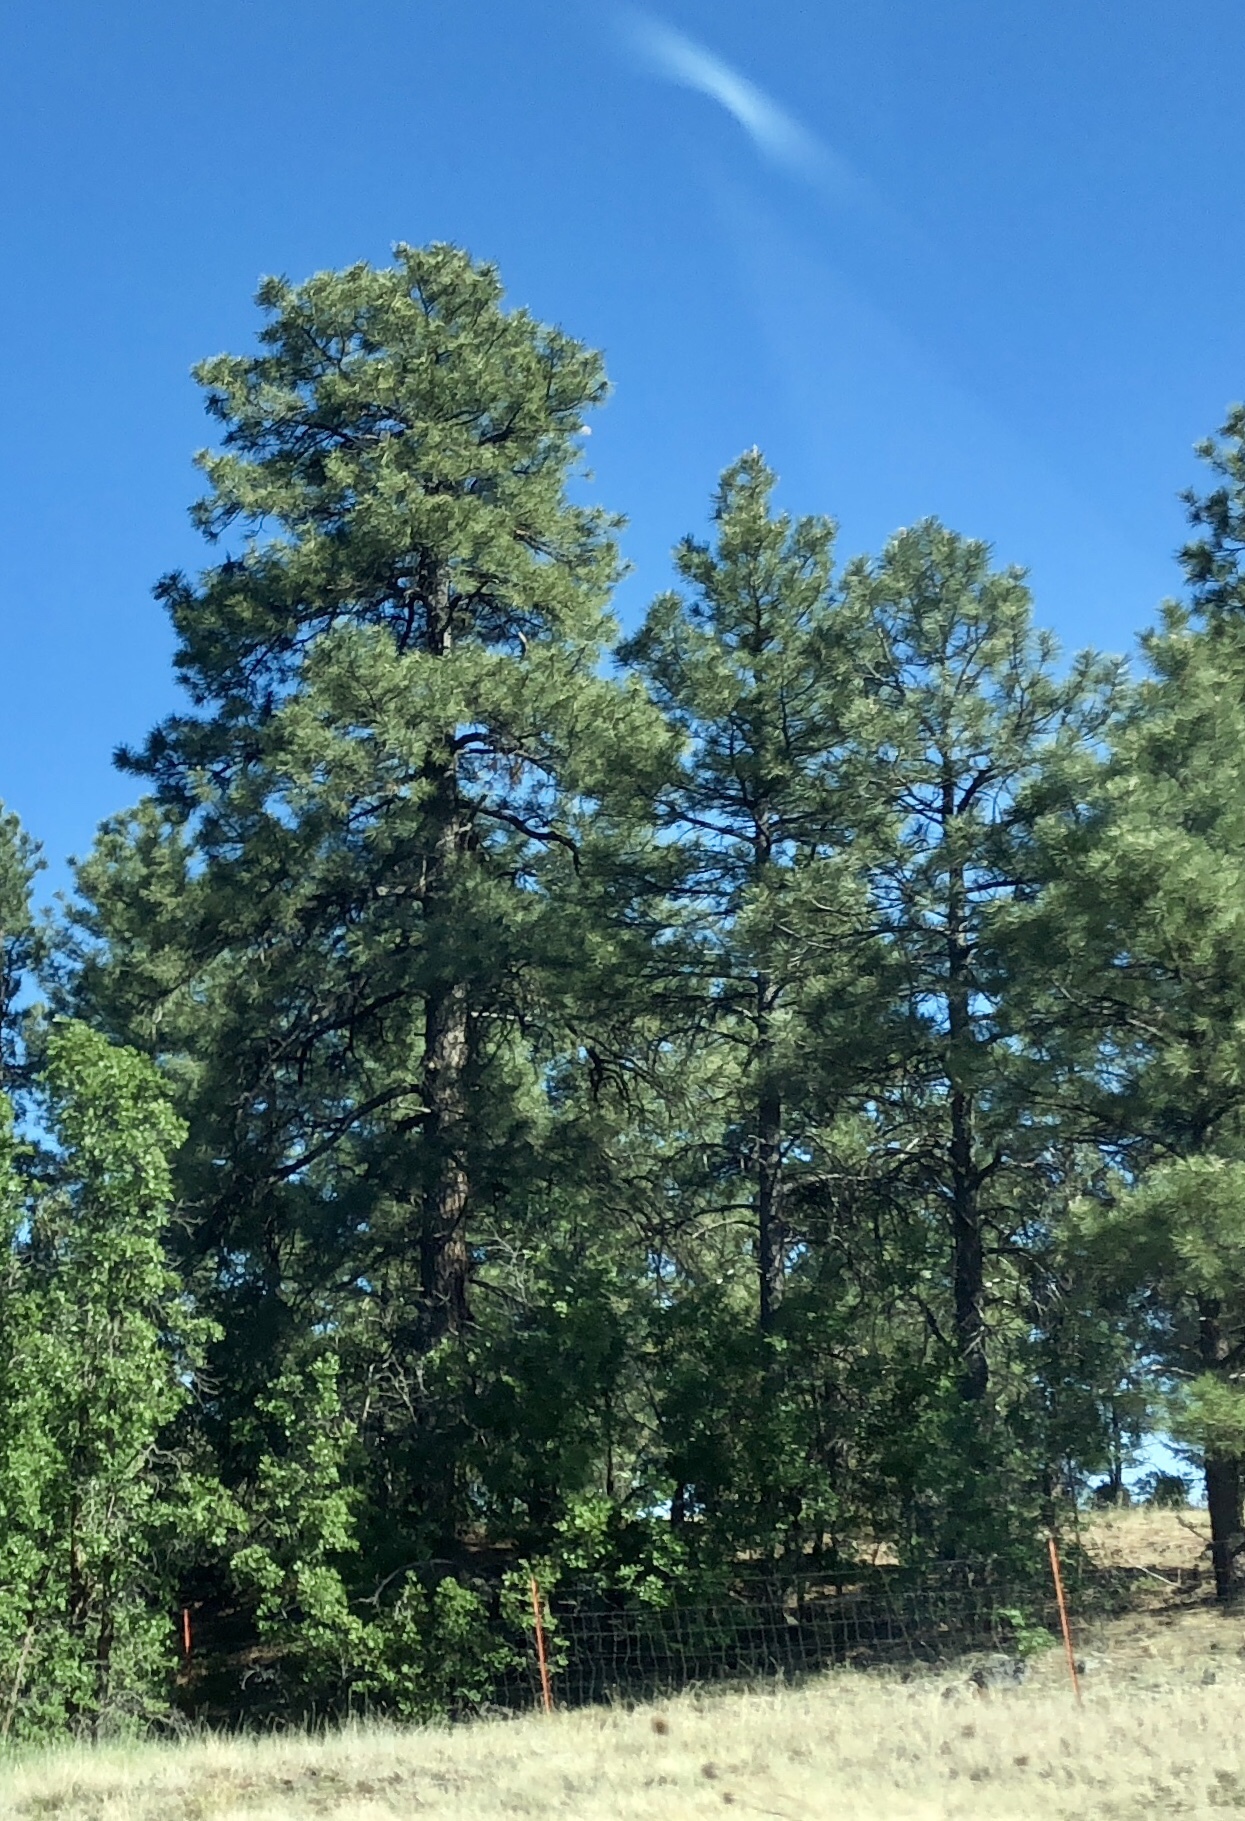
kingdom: Plantae
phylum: Tracheophyta
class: Pinopsida
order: Pinales
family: Pinaceae
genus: Pinus
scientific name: Pinus ponderosa
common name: Western yellow-pine
